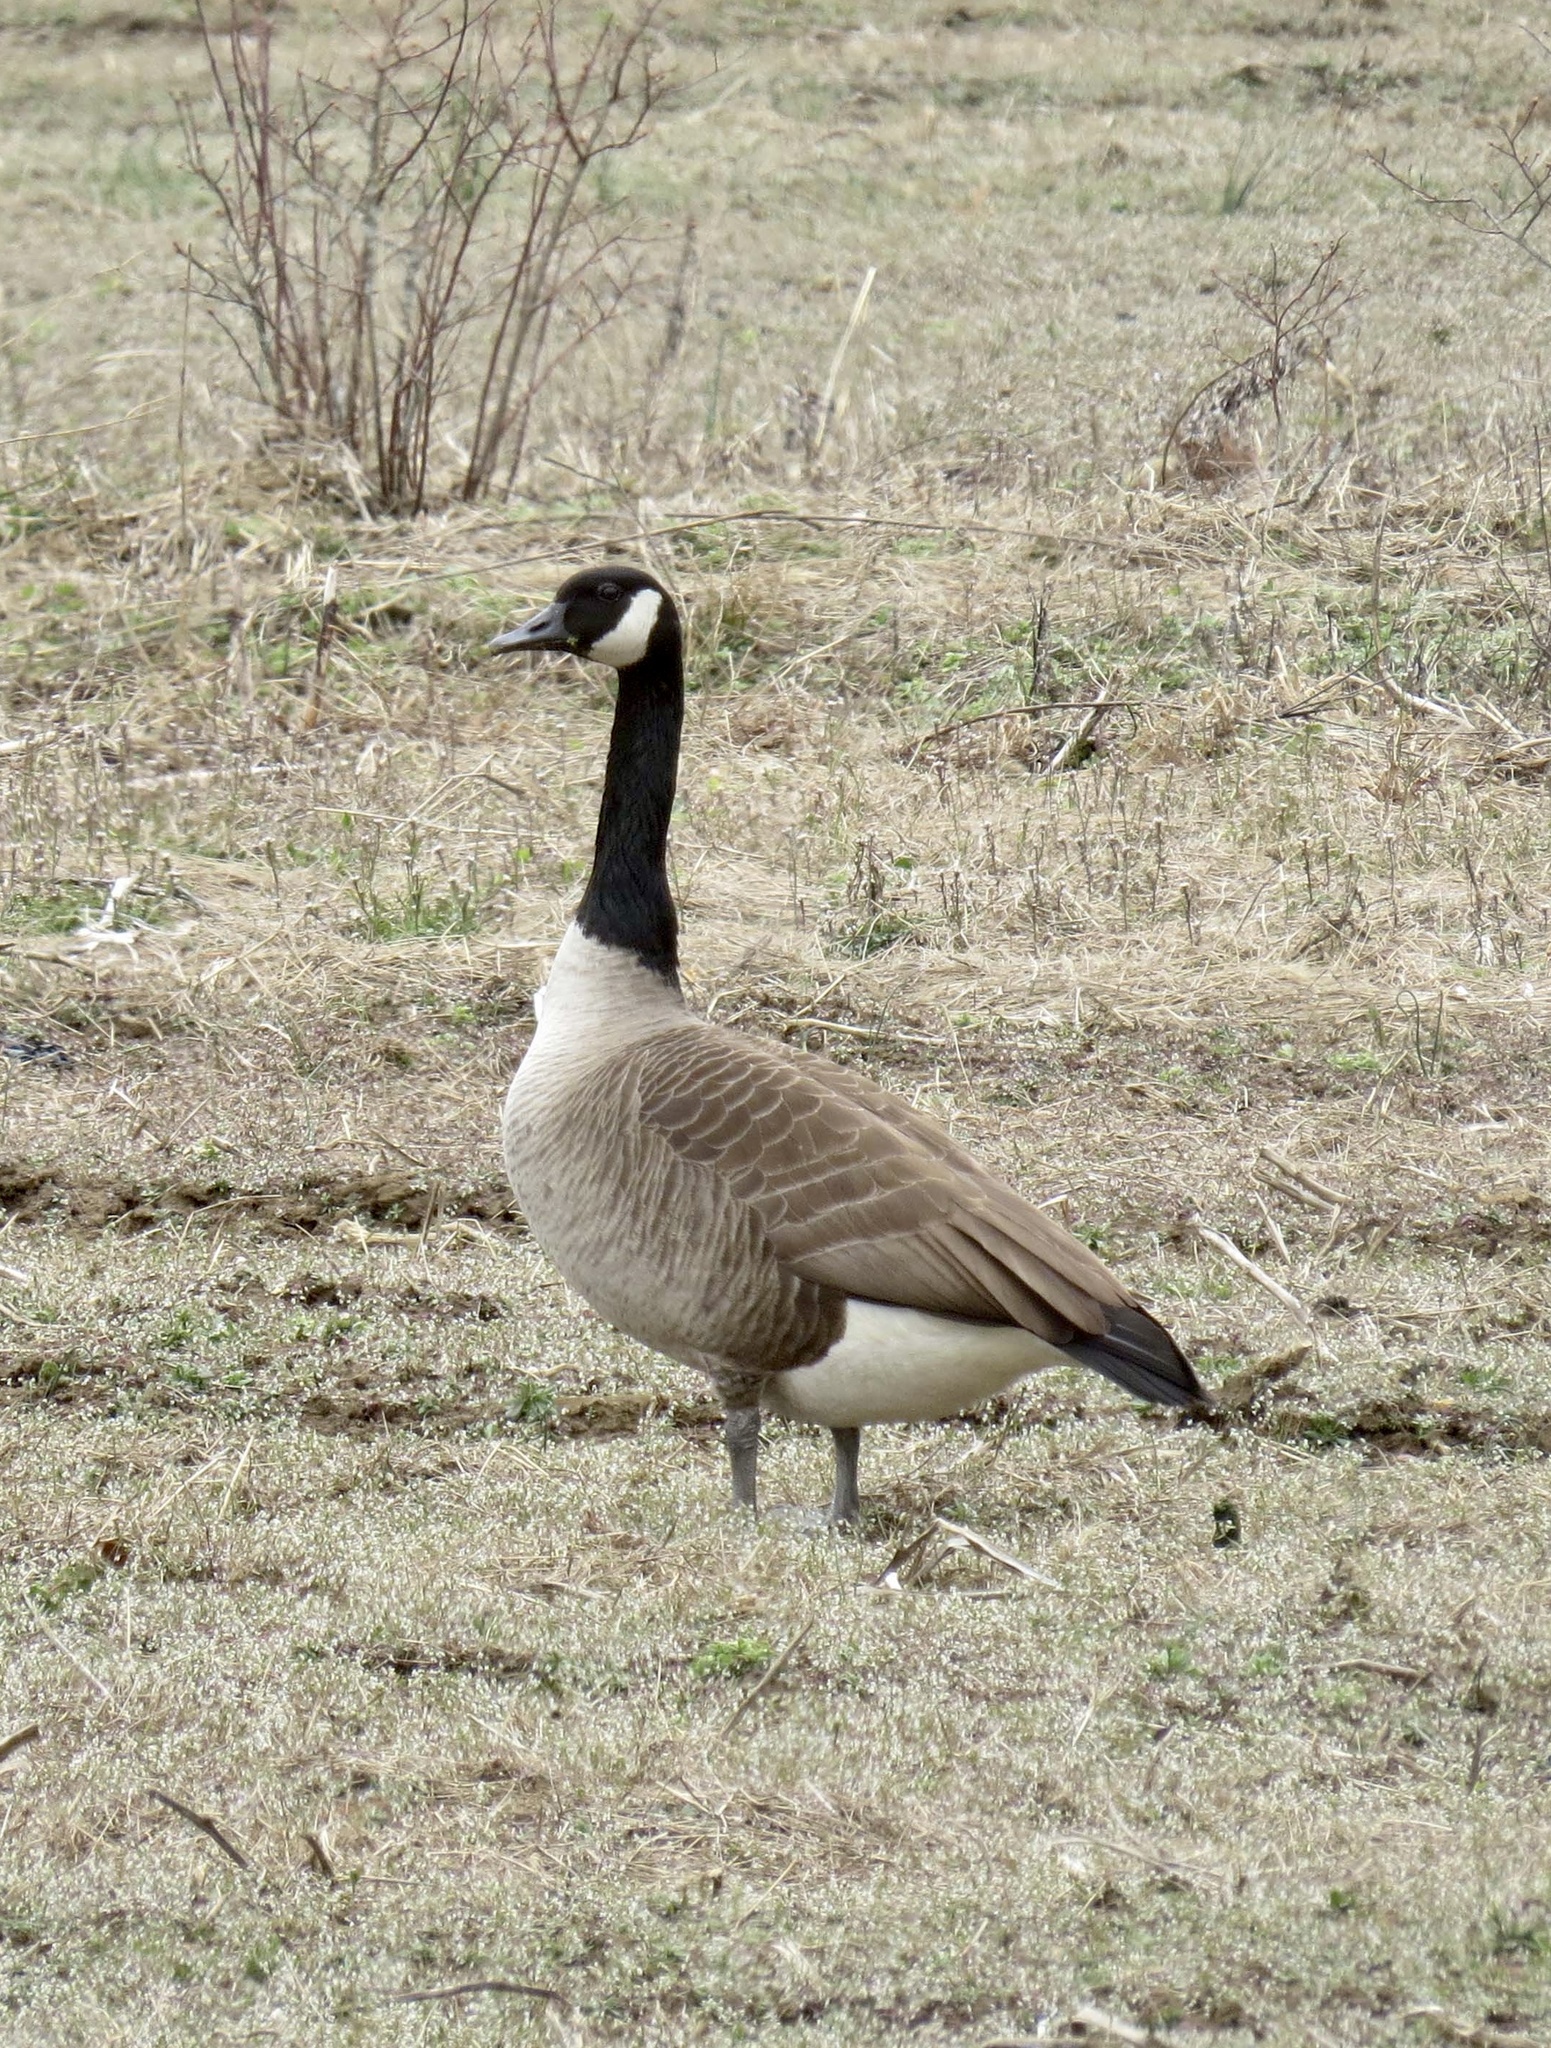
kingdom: Animalia
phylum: Chordata
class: Aves
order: Anseriformes
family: Anatidae
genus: Branta
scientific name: Branta canadensis
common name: Canada goose
